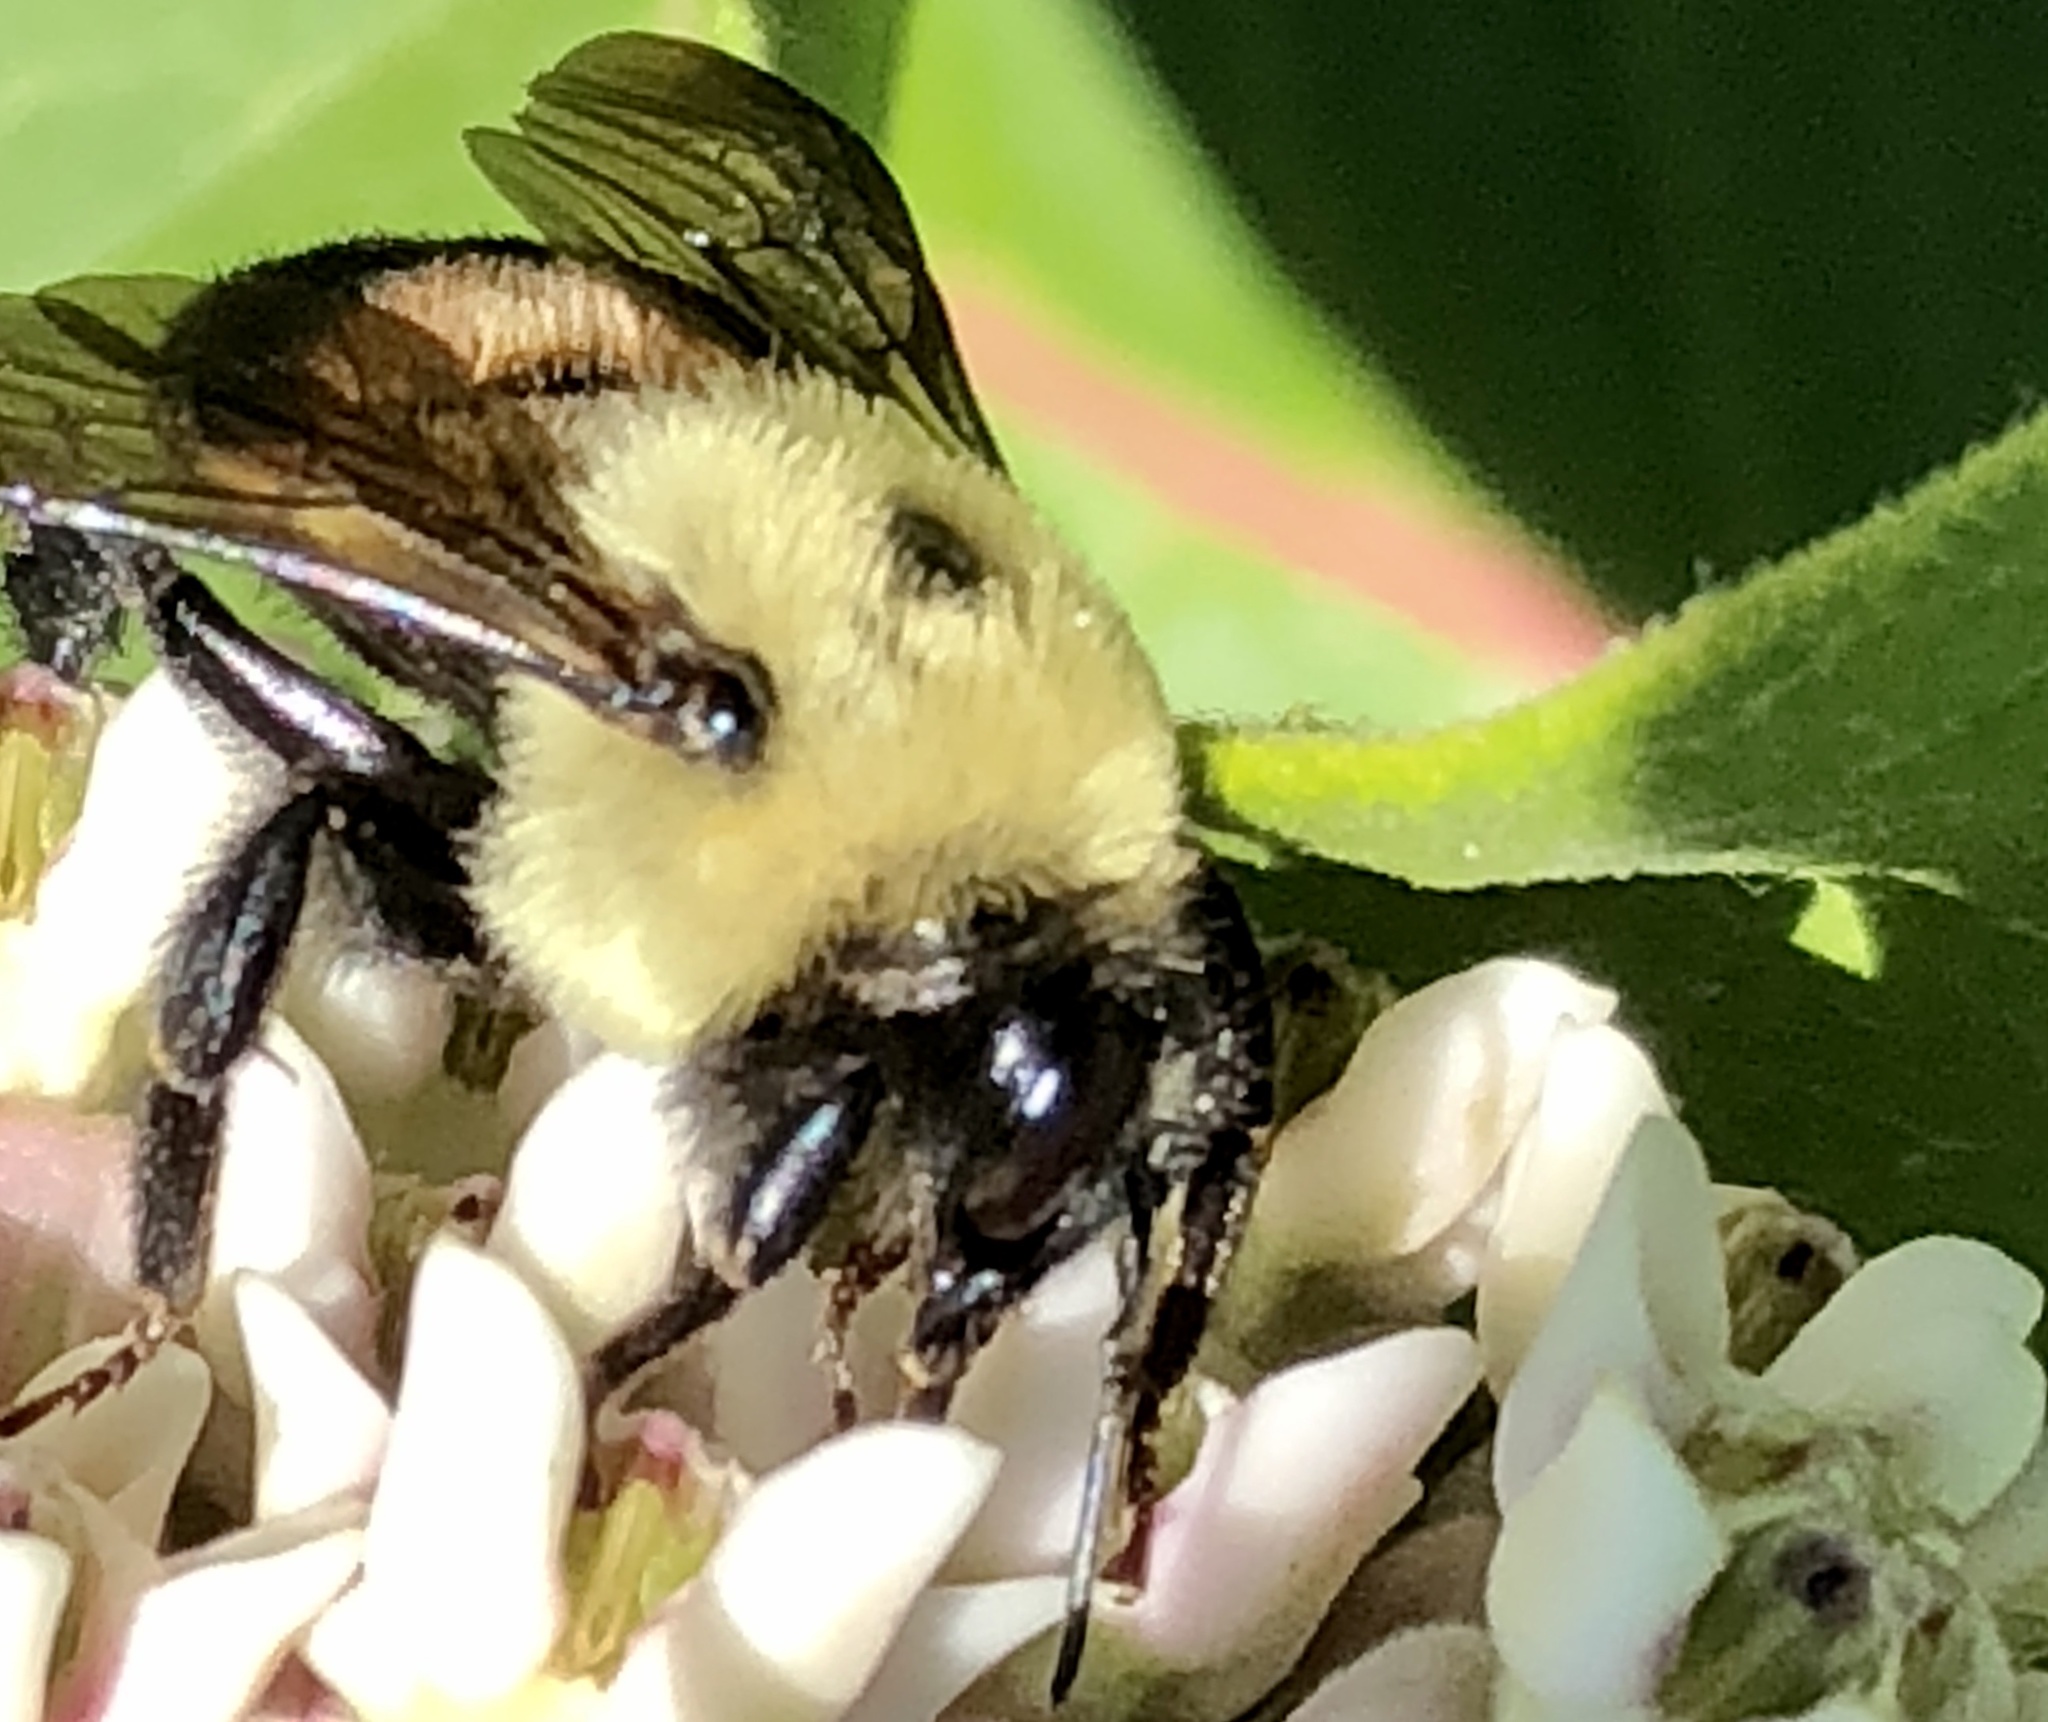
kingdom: Animalia
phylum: Arthropoda
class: Insecta
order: Hymenoptera
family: Apidae
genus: Bombus
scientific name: Bombus griseocollis
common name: Brown-belted bumble bee
